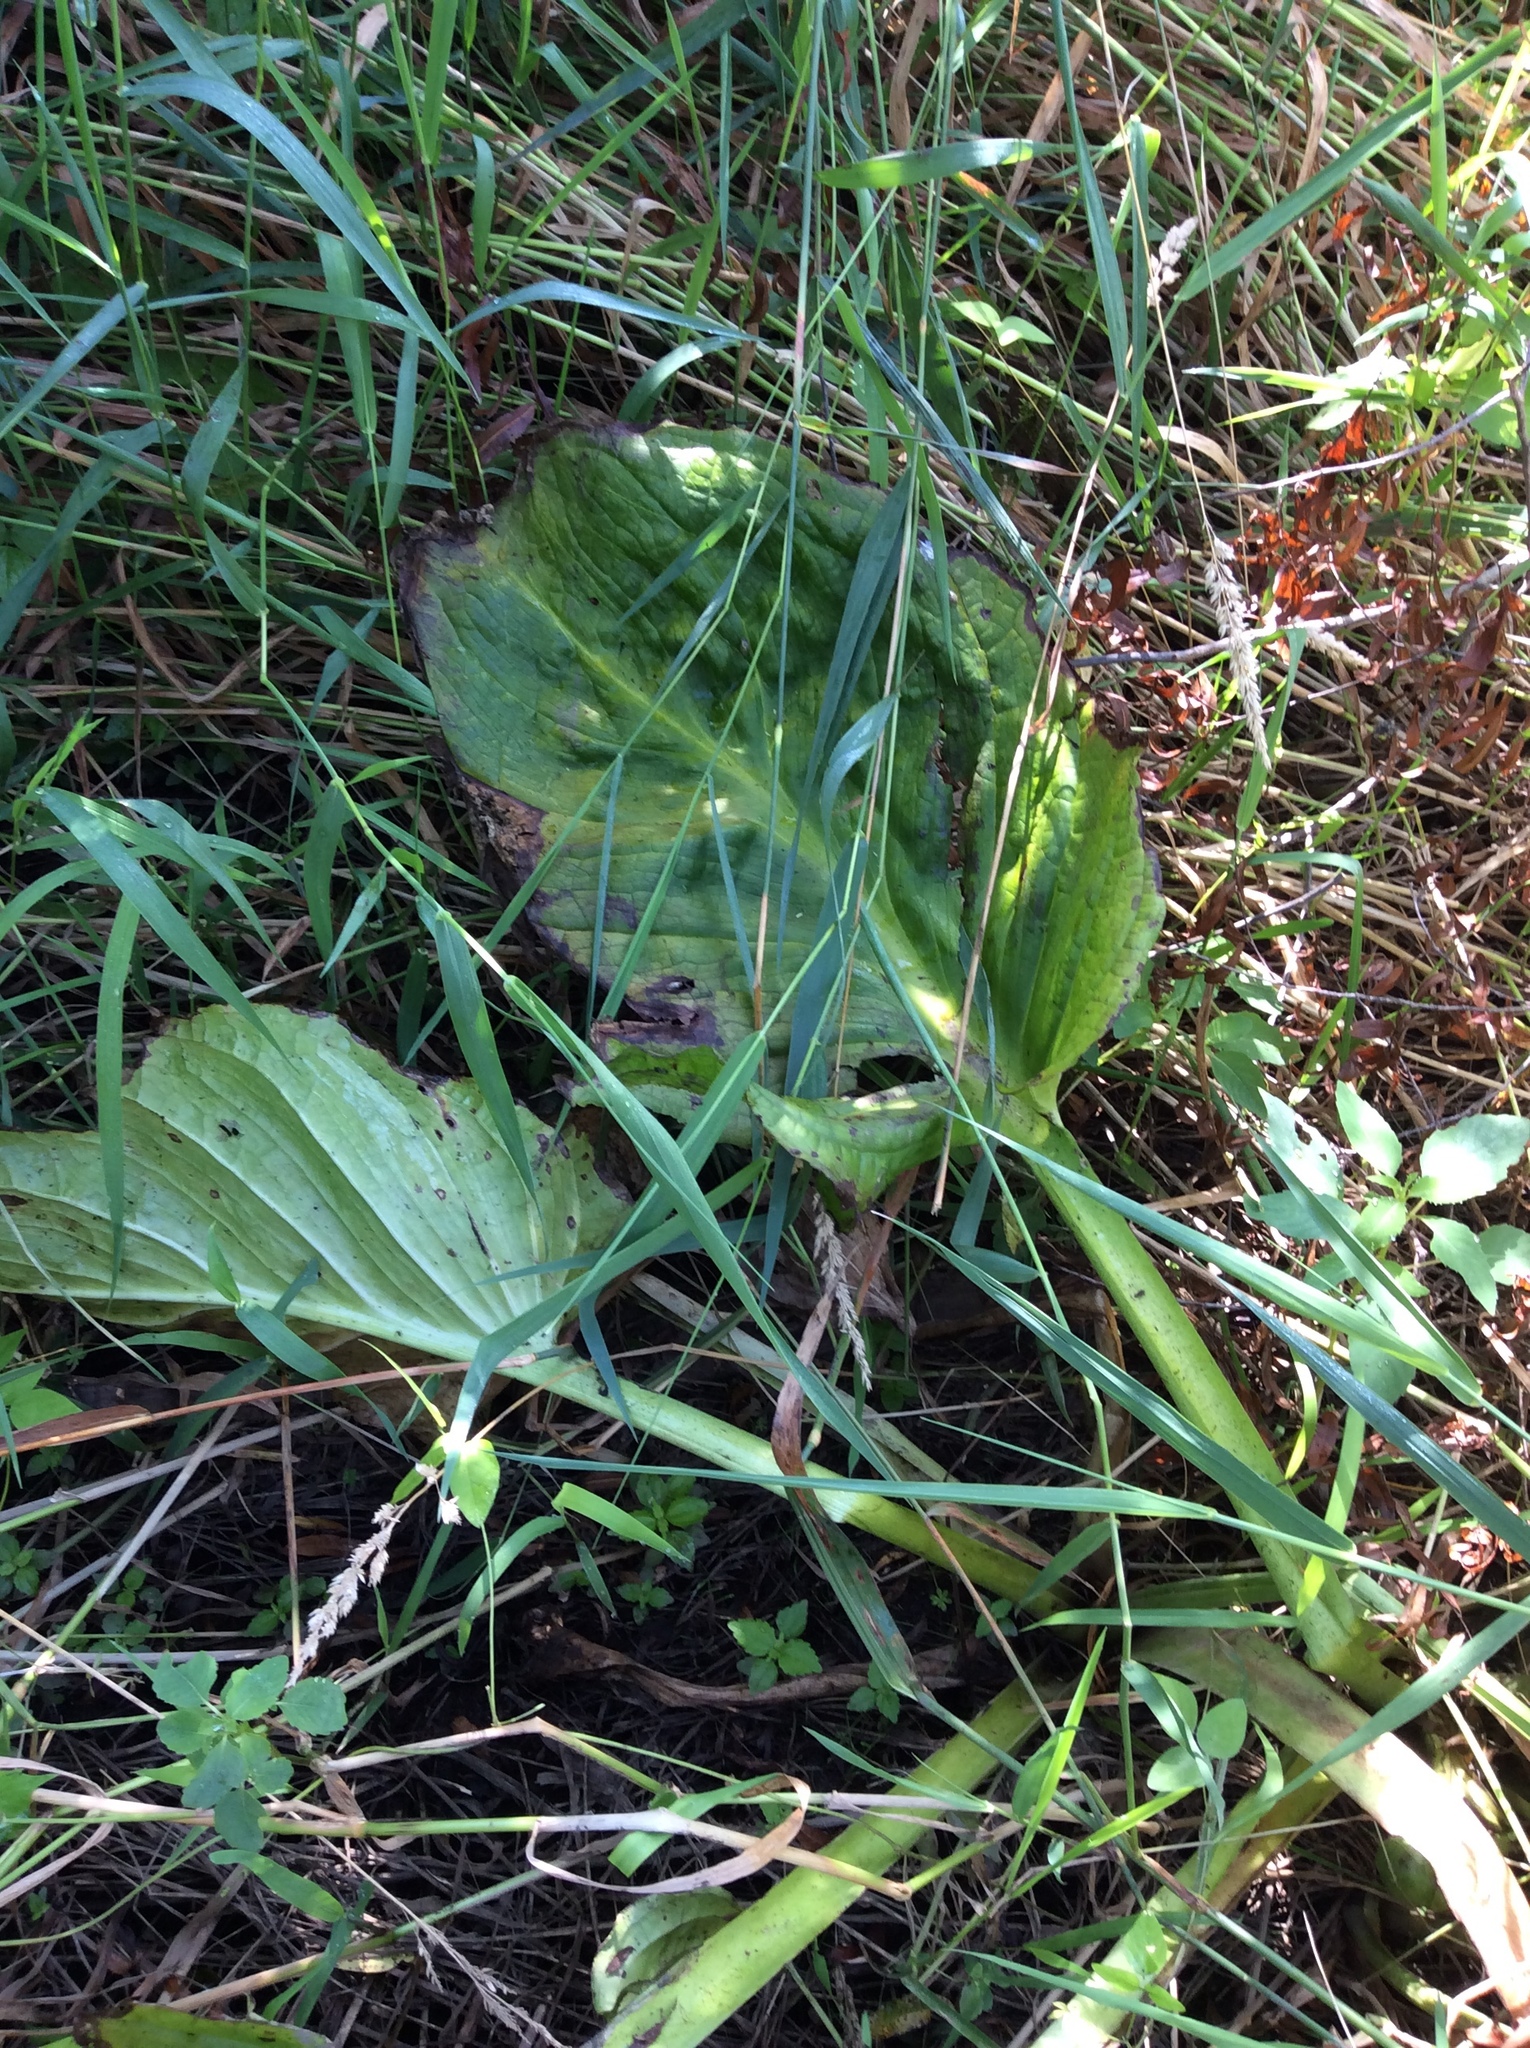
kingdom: Plantae
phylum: Tracheophyta
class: Liliopsida
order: Alismatales
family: Araceae
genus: Symplocarpus
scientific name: Symplocarpus foetidus
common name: Eastern skunk cabbage
